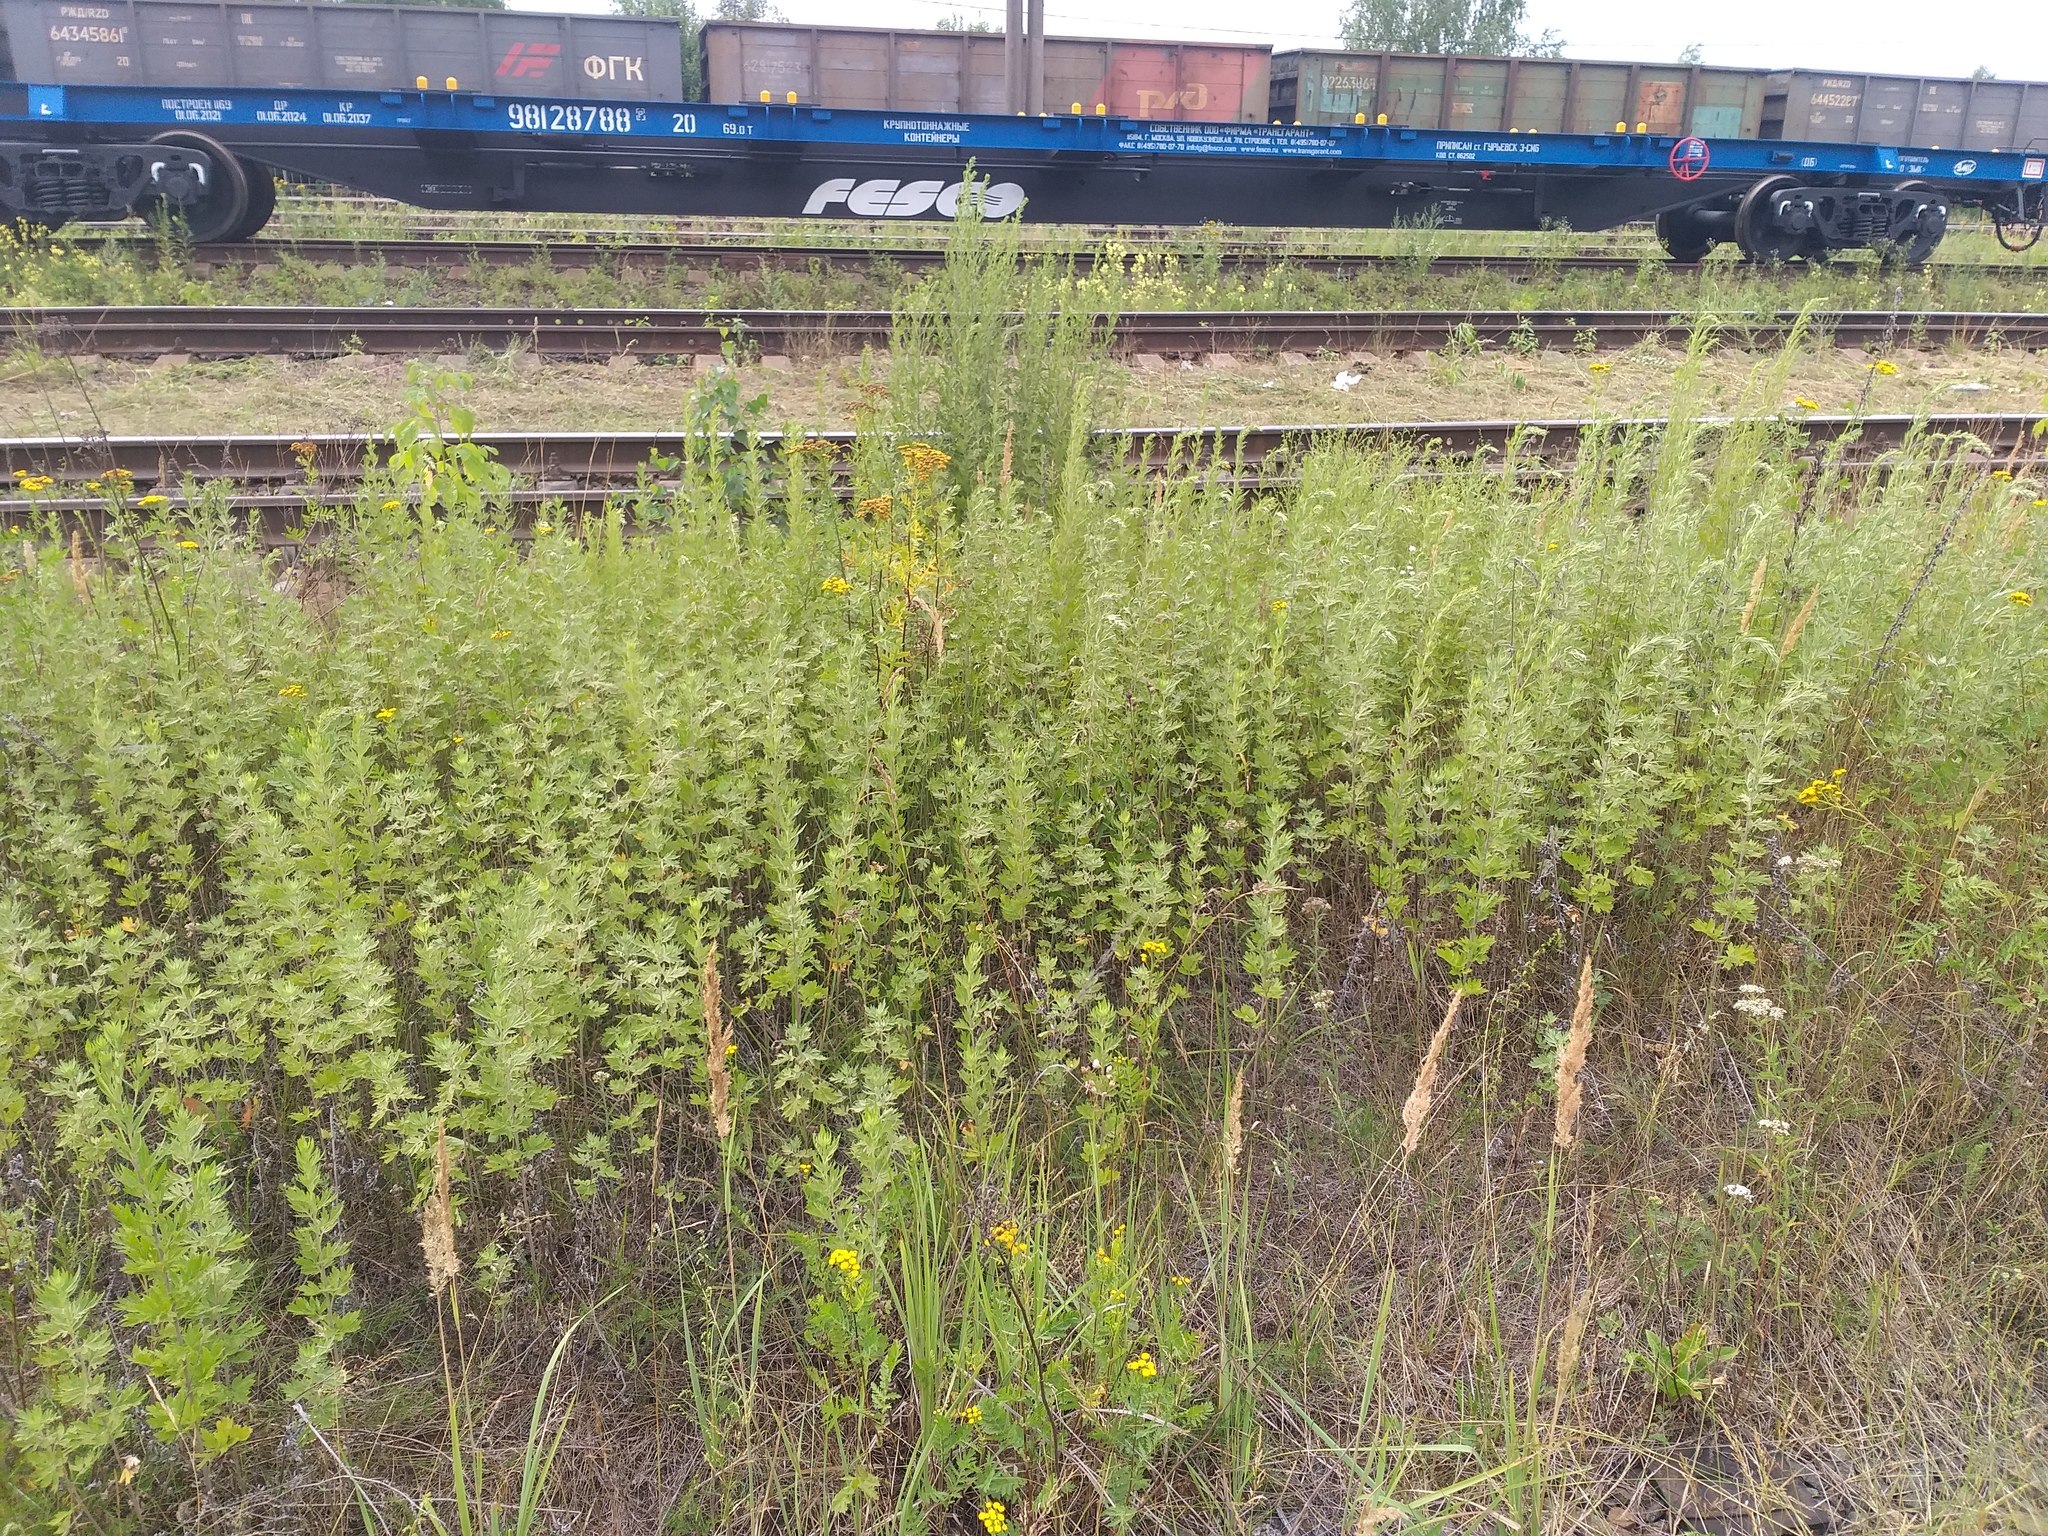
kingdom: Plantae
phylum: Tracheophyta
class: Magnoliopsida
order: Asterales
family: Asteraceae
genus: Artemisia
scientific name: Artemisia argyi
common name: Chinese mugwort
